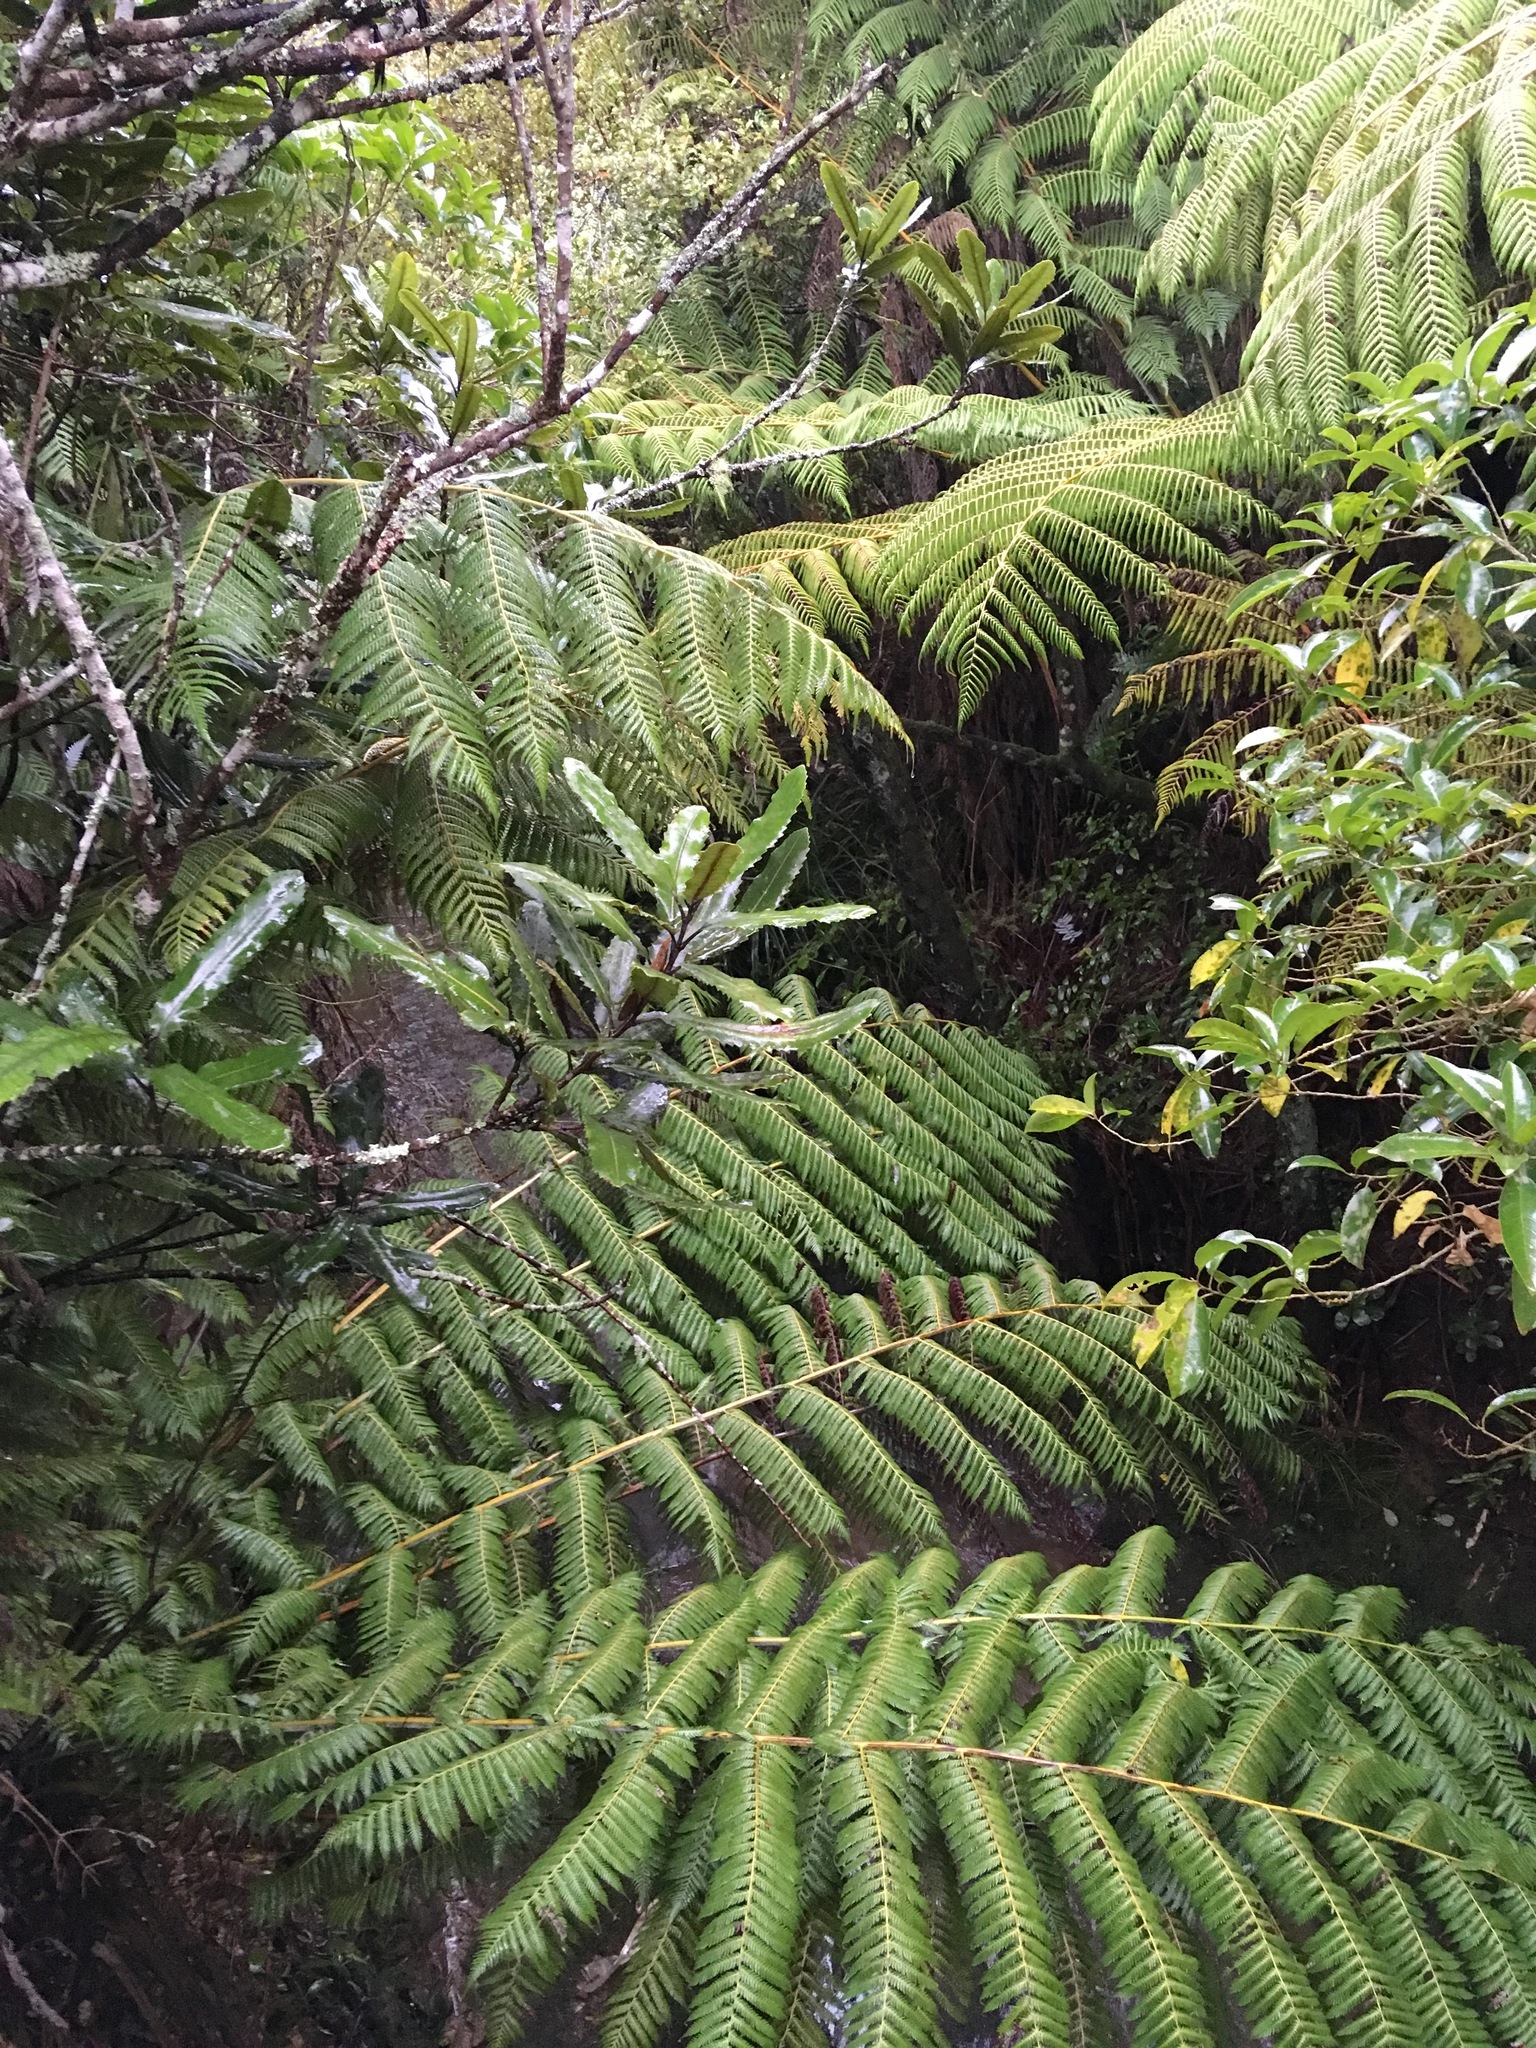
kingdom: Plantae
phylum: Tracheophyta
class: Magnoliopsida
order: Proteales
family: Proteaceae
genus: Knightia
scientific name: Knightia excelsa
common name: New zealand-honeysuckle
